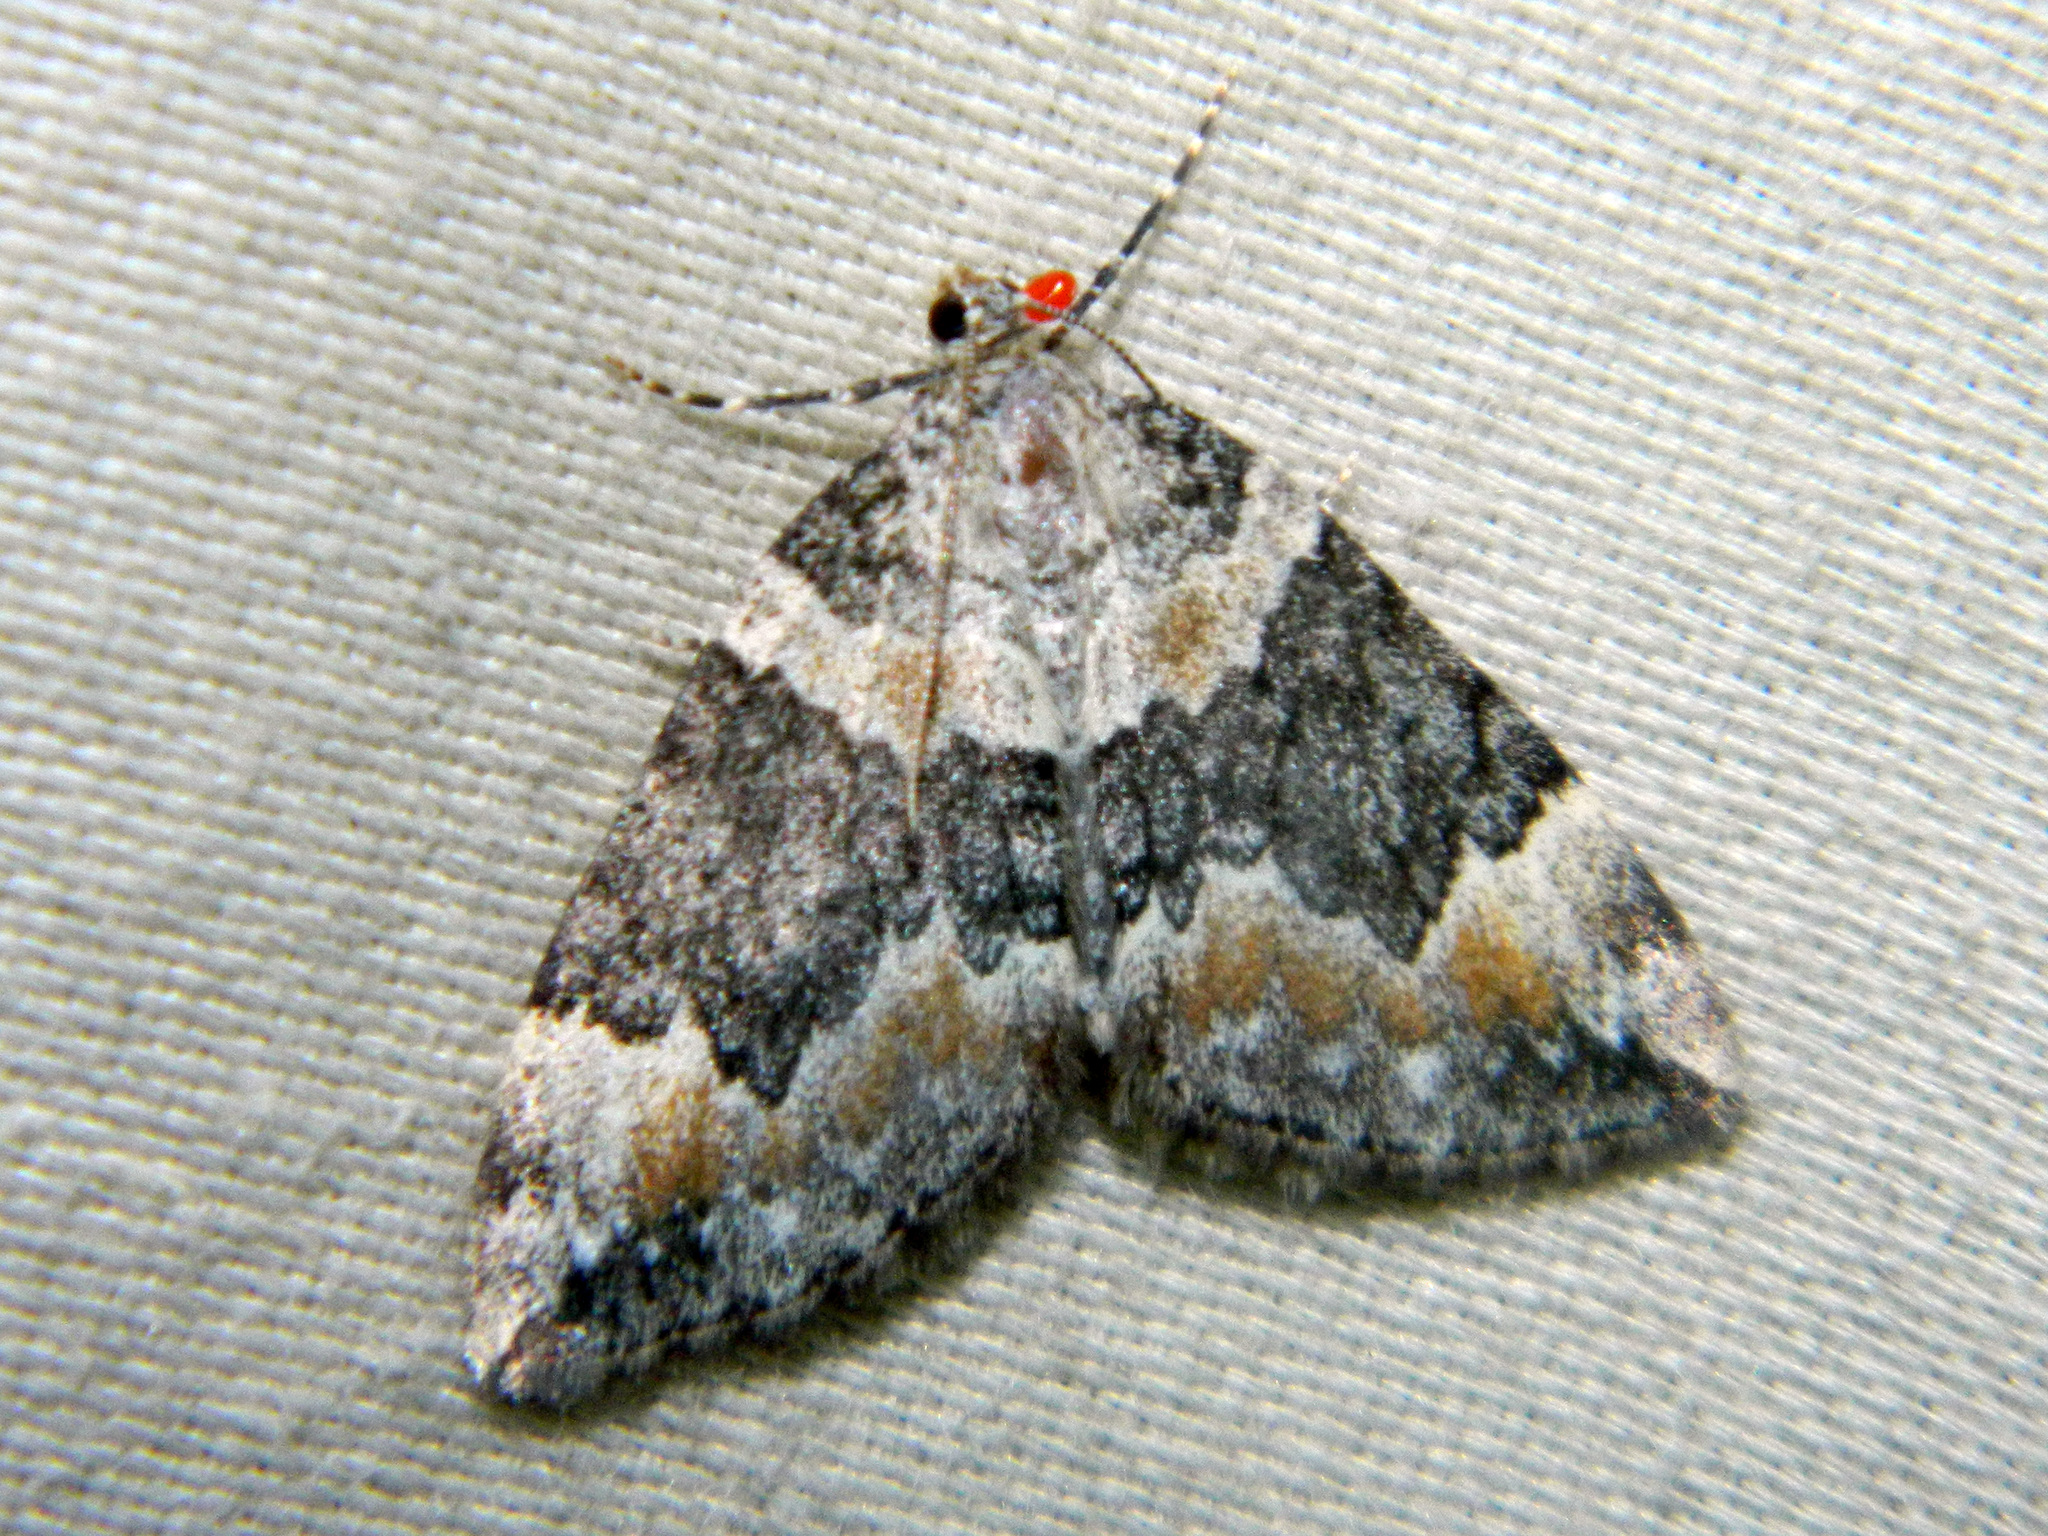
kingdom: Animalia
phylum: Arthropoda
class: Insecta
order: Lepidoptera
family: Geometridae
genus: Dysstroma
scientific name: Dysstroma brunneata
